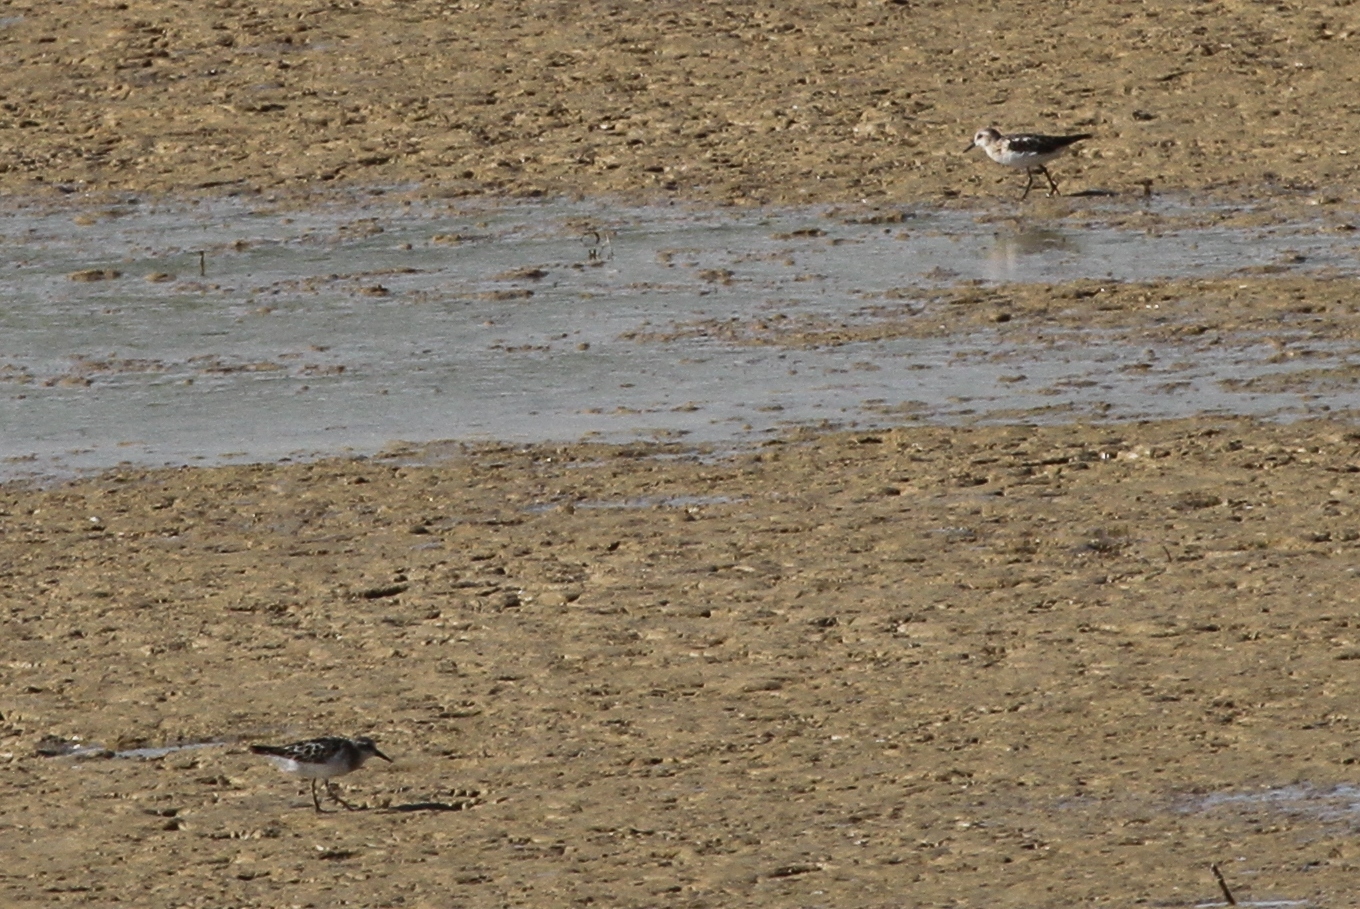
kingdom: Animalia
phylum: Chordata
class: Aves
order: Charadriiformes
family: Scolopacidae
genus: Calidris
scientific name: Calidris minuta
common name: Little stint
